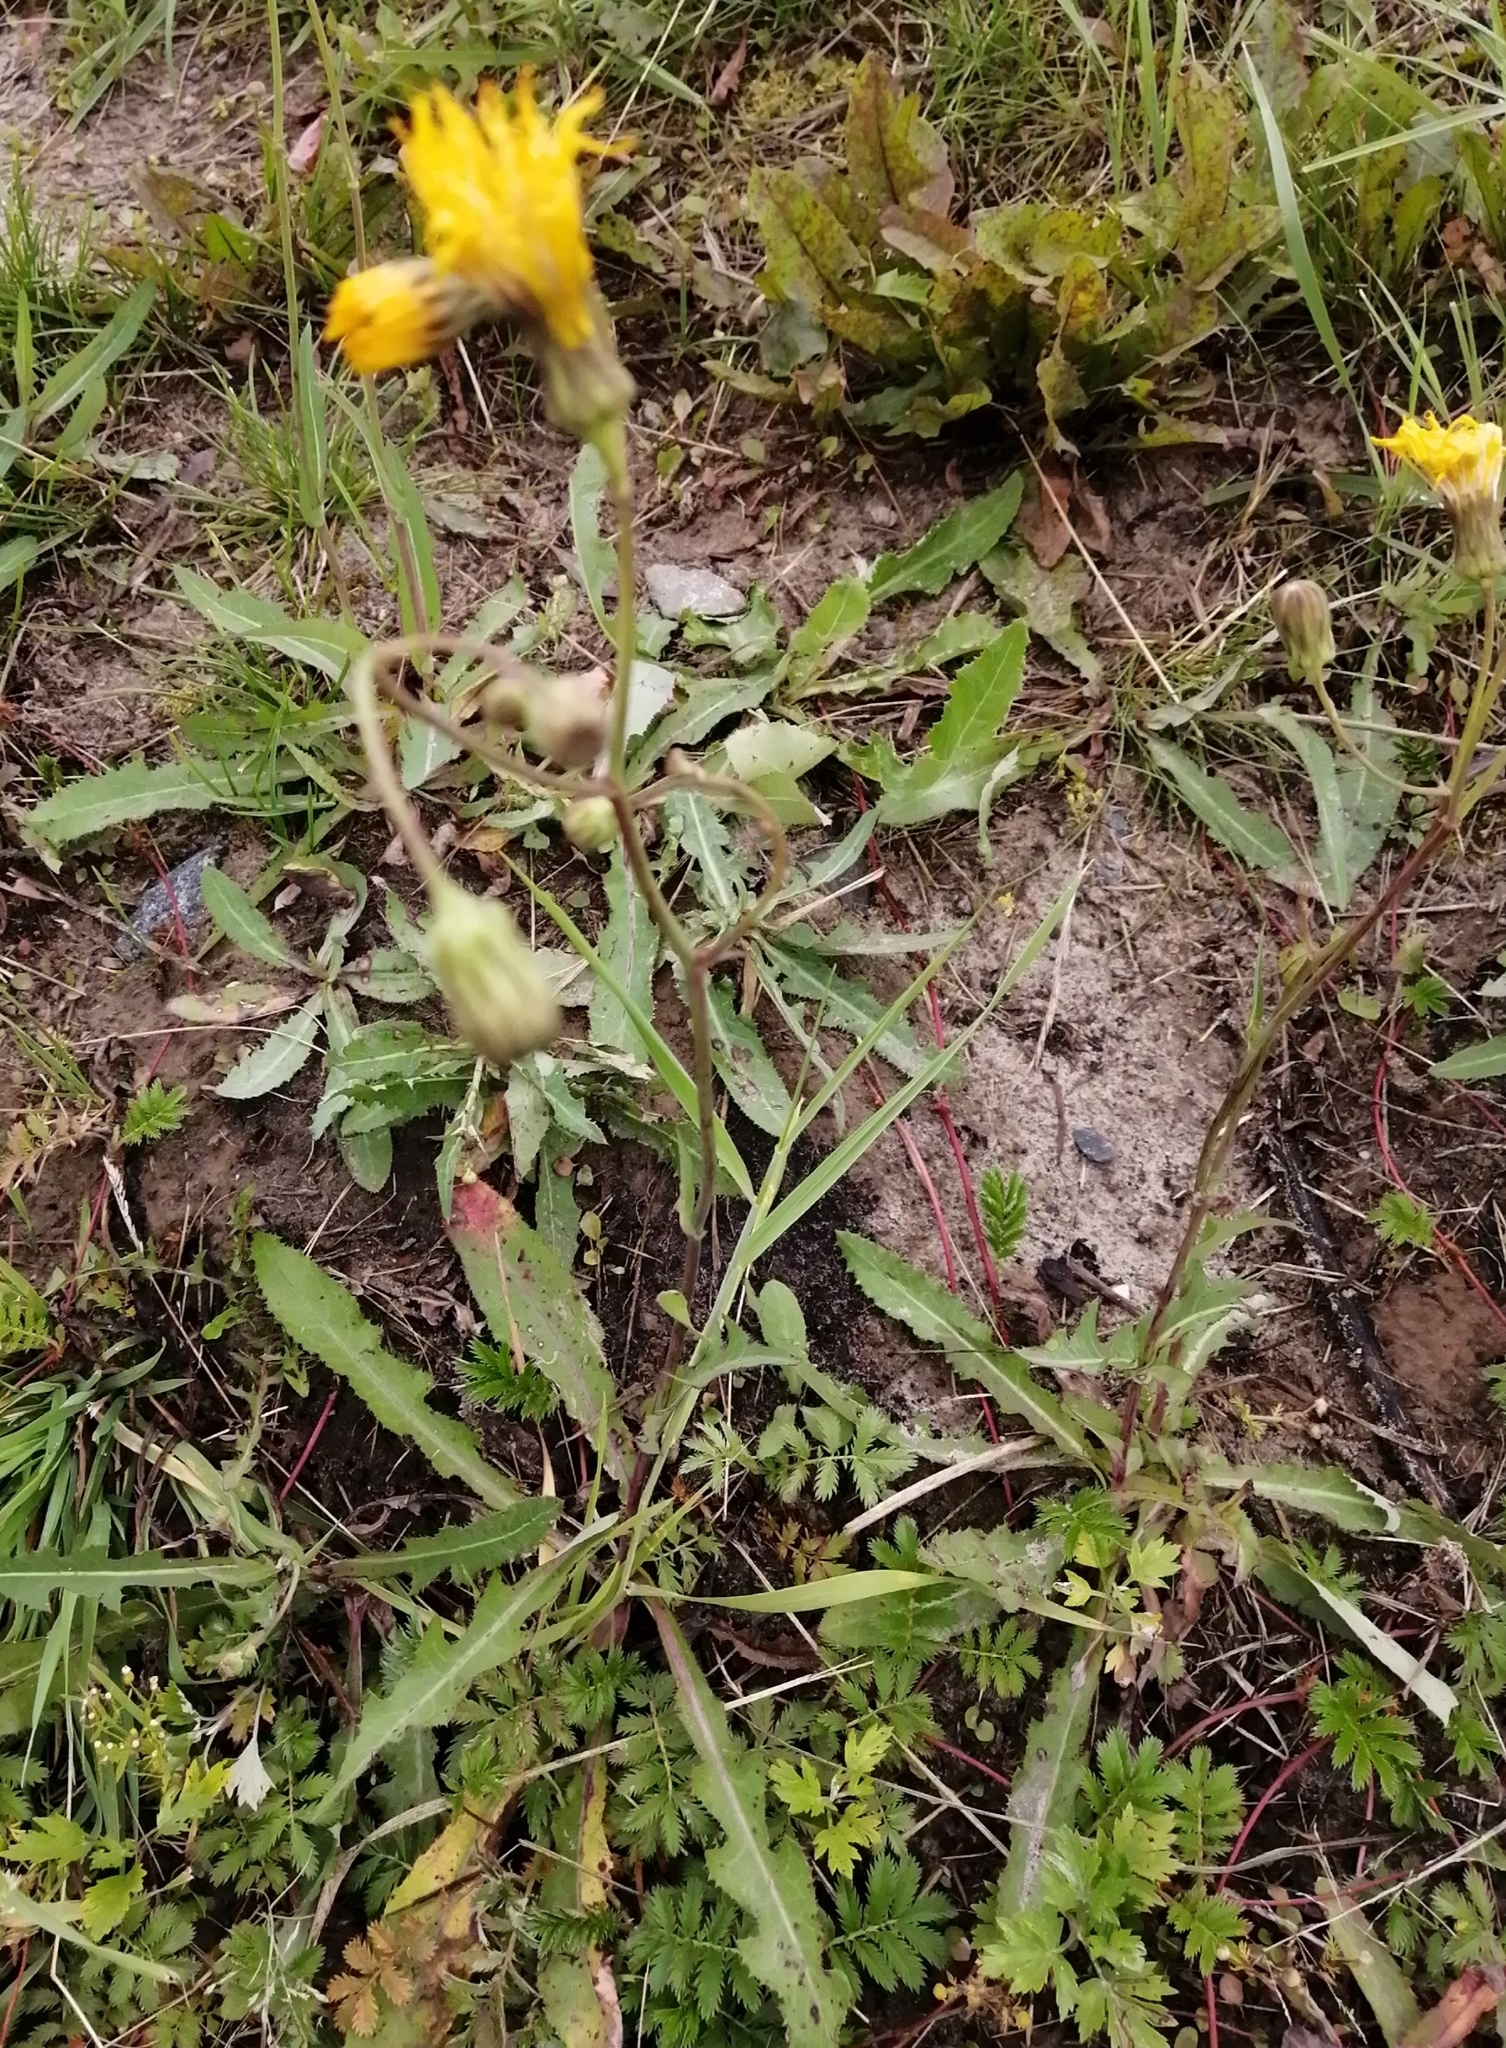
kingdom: Plantae
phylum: Tracheophyta
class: Magnoliopsida
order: Asterales
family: Asteraceae
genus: Sonchus
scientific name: Sonchus arvensis
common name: Perennial sow-thistle
